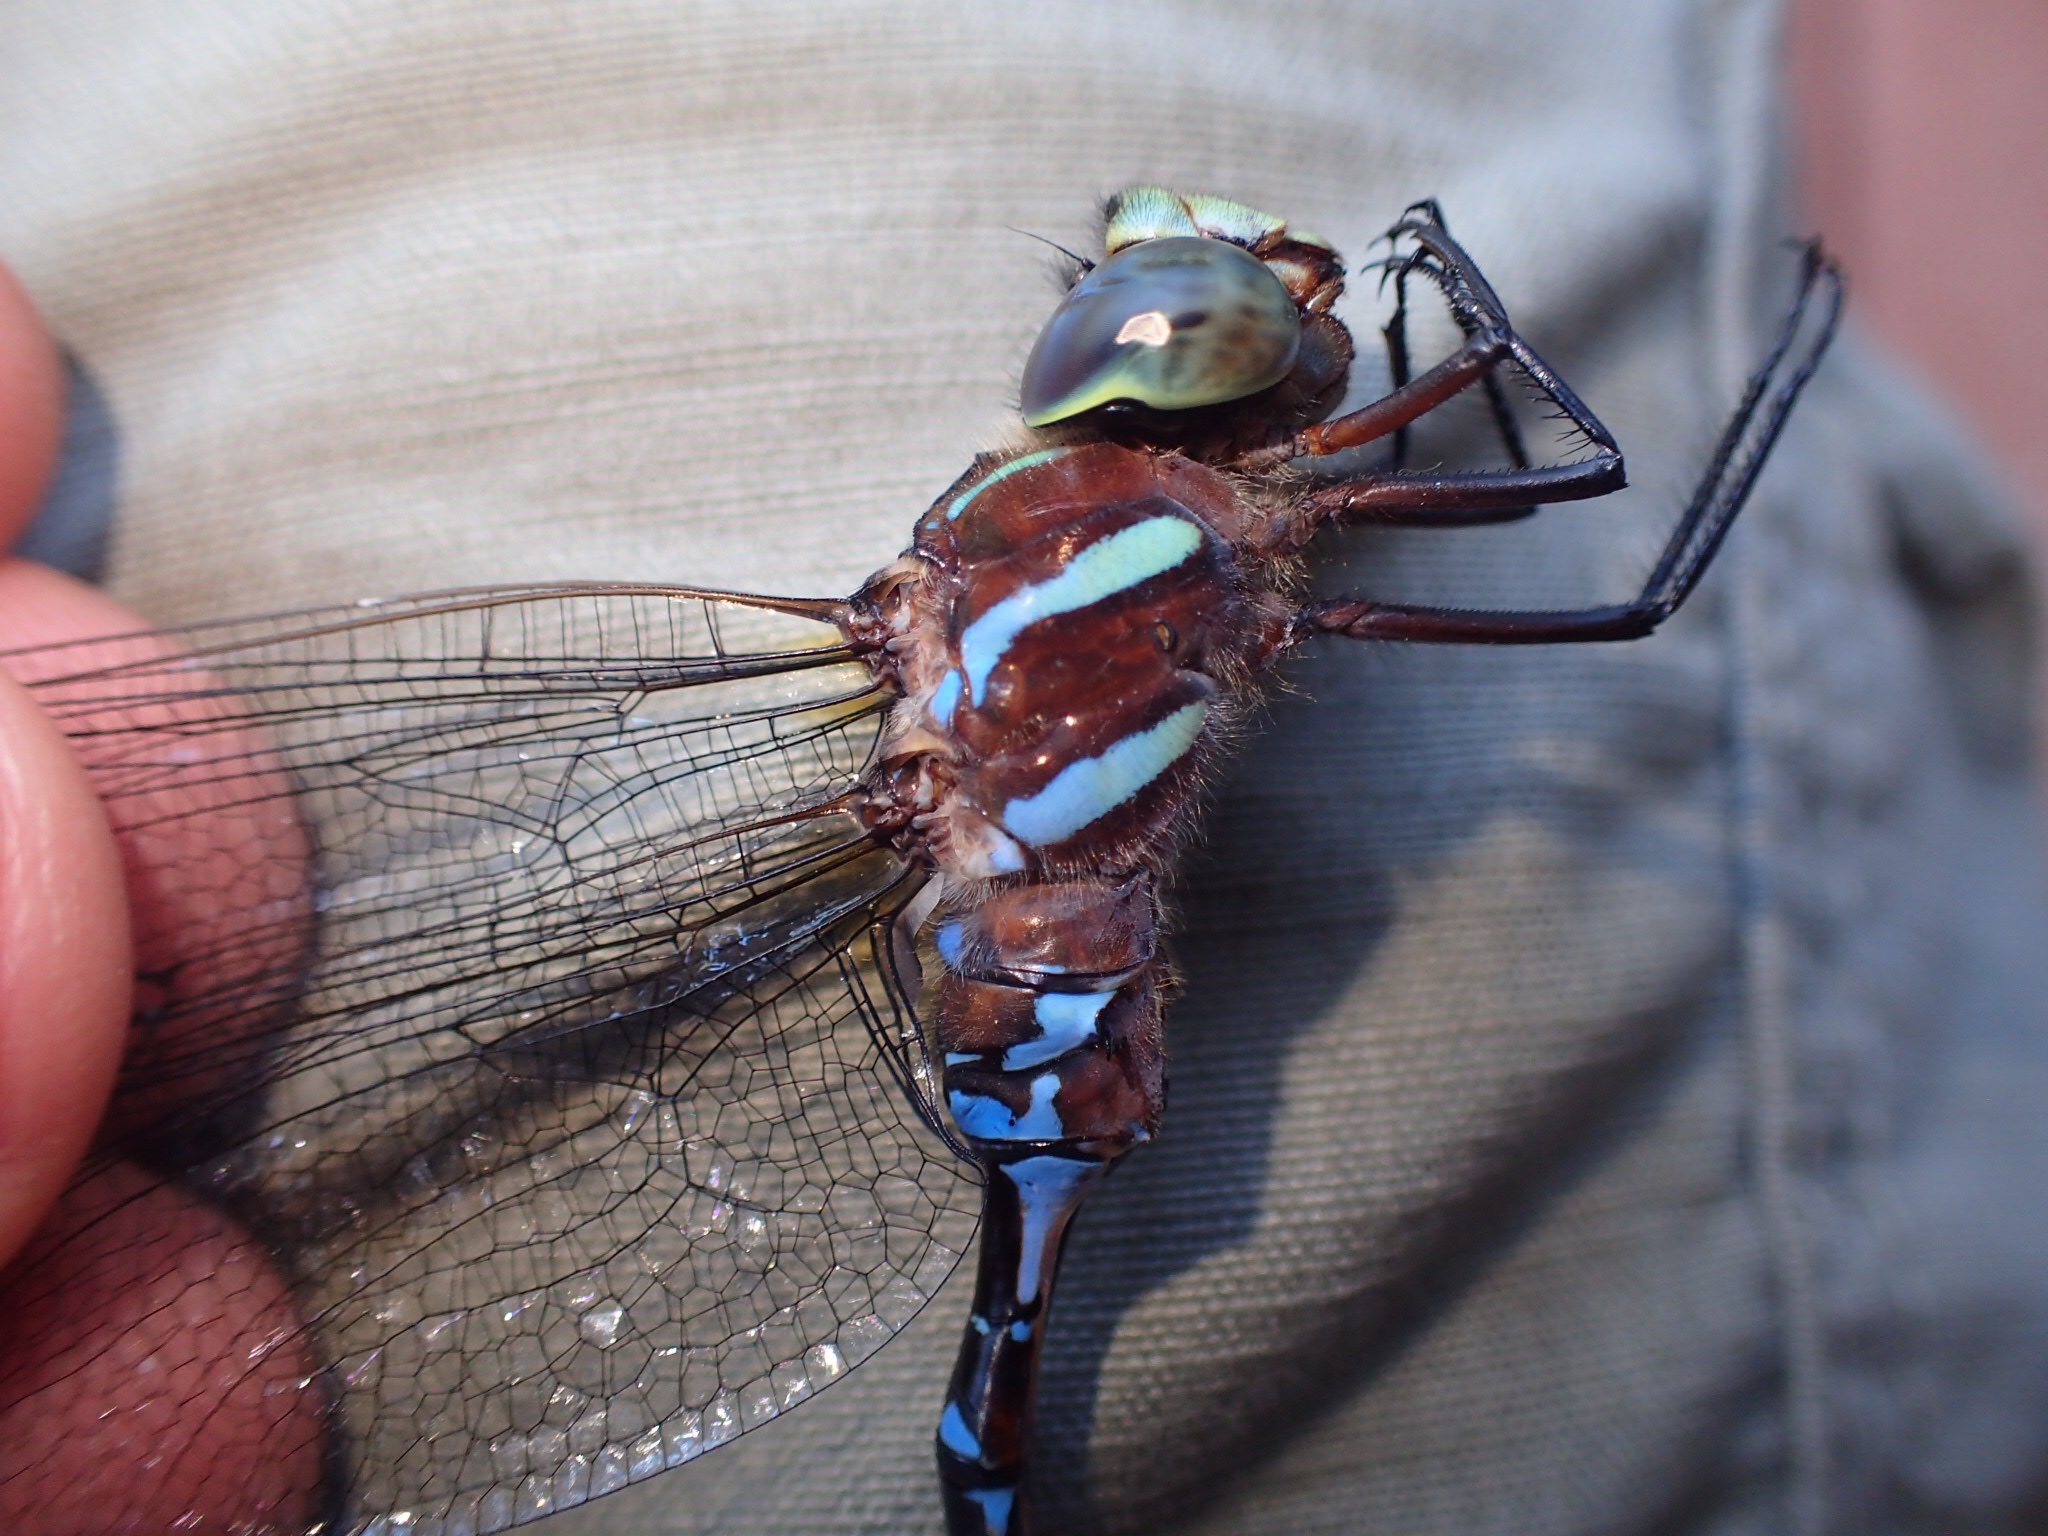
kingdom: Animalia
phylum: Arthropoda
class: Insecta
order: Odonata
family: Aeshnidae
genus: Aeshna
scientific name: Aeshna tuberculifera
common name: Aeschne à tubercules
